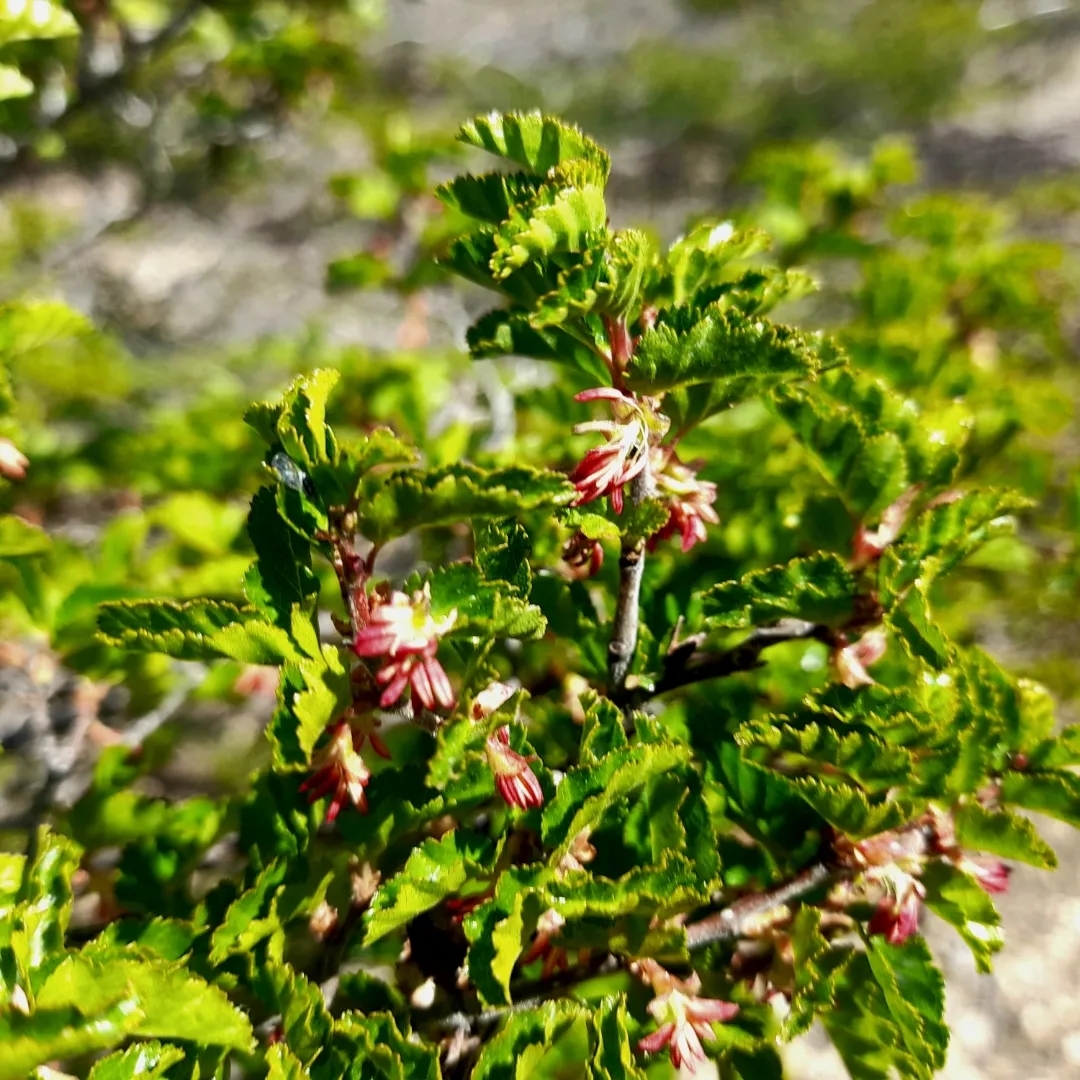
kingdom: Plantae
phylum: Tracheophyta
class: Magnoliopsida
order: Fagales
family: Nothofagaceae
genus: Nothofagus
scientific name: Nothofagus antarctica
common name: Antarctic beech
